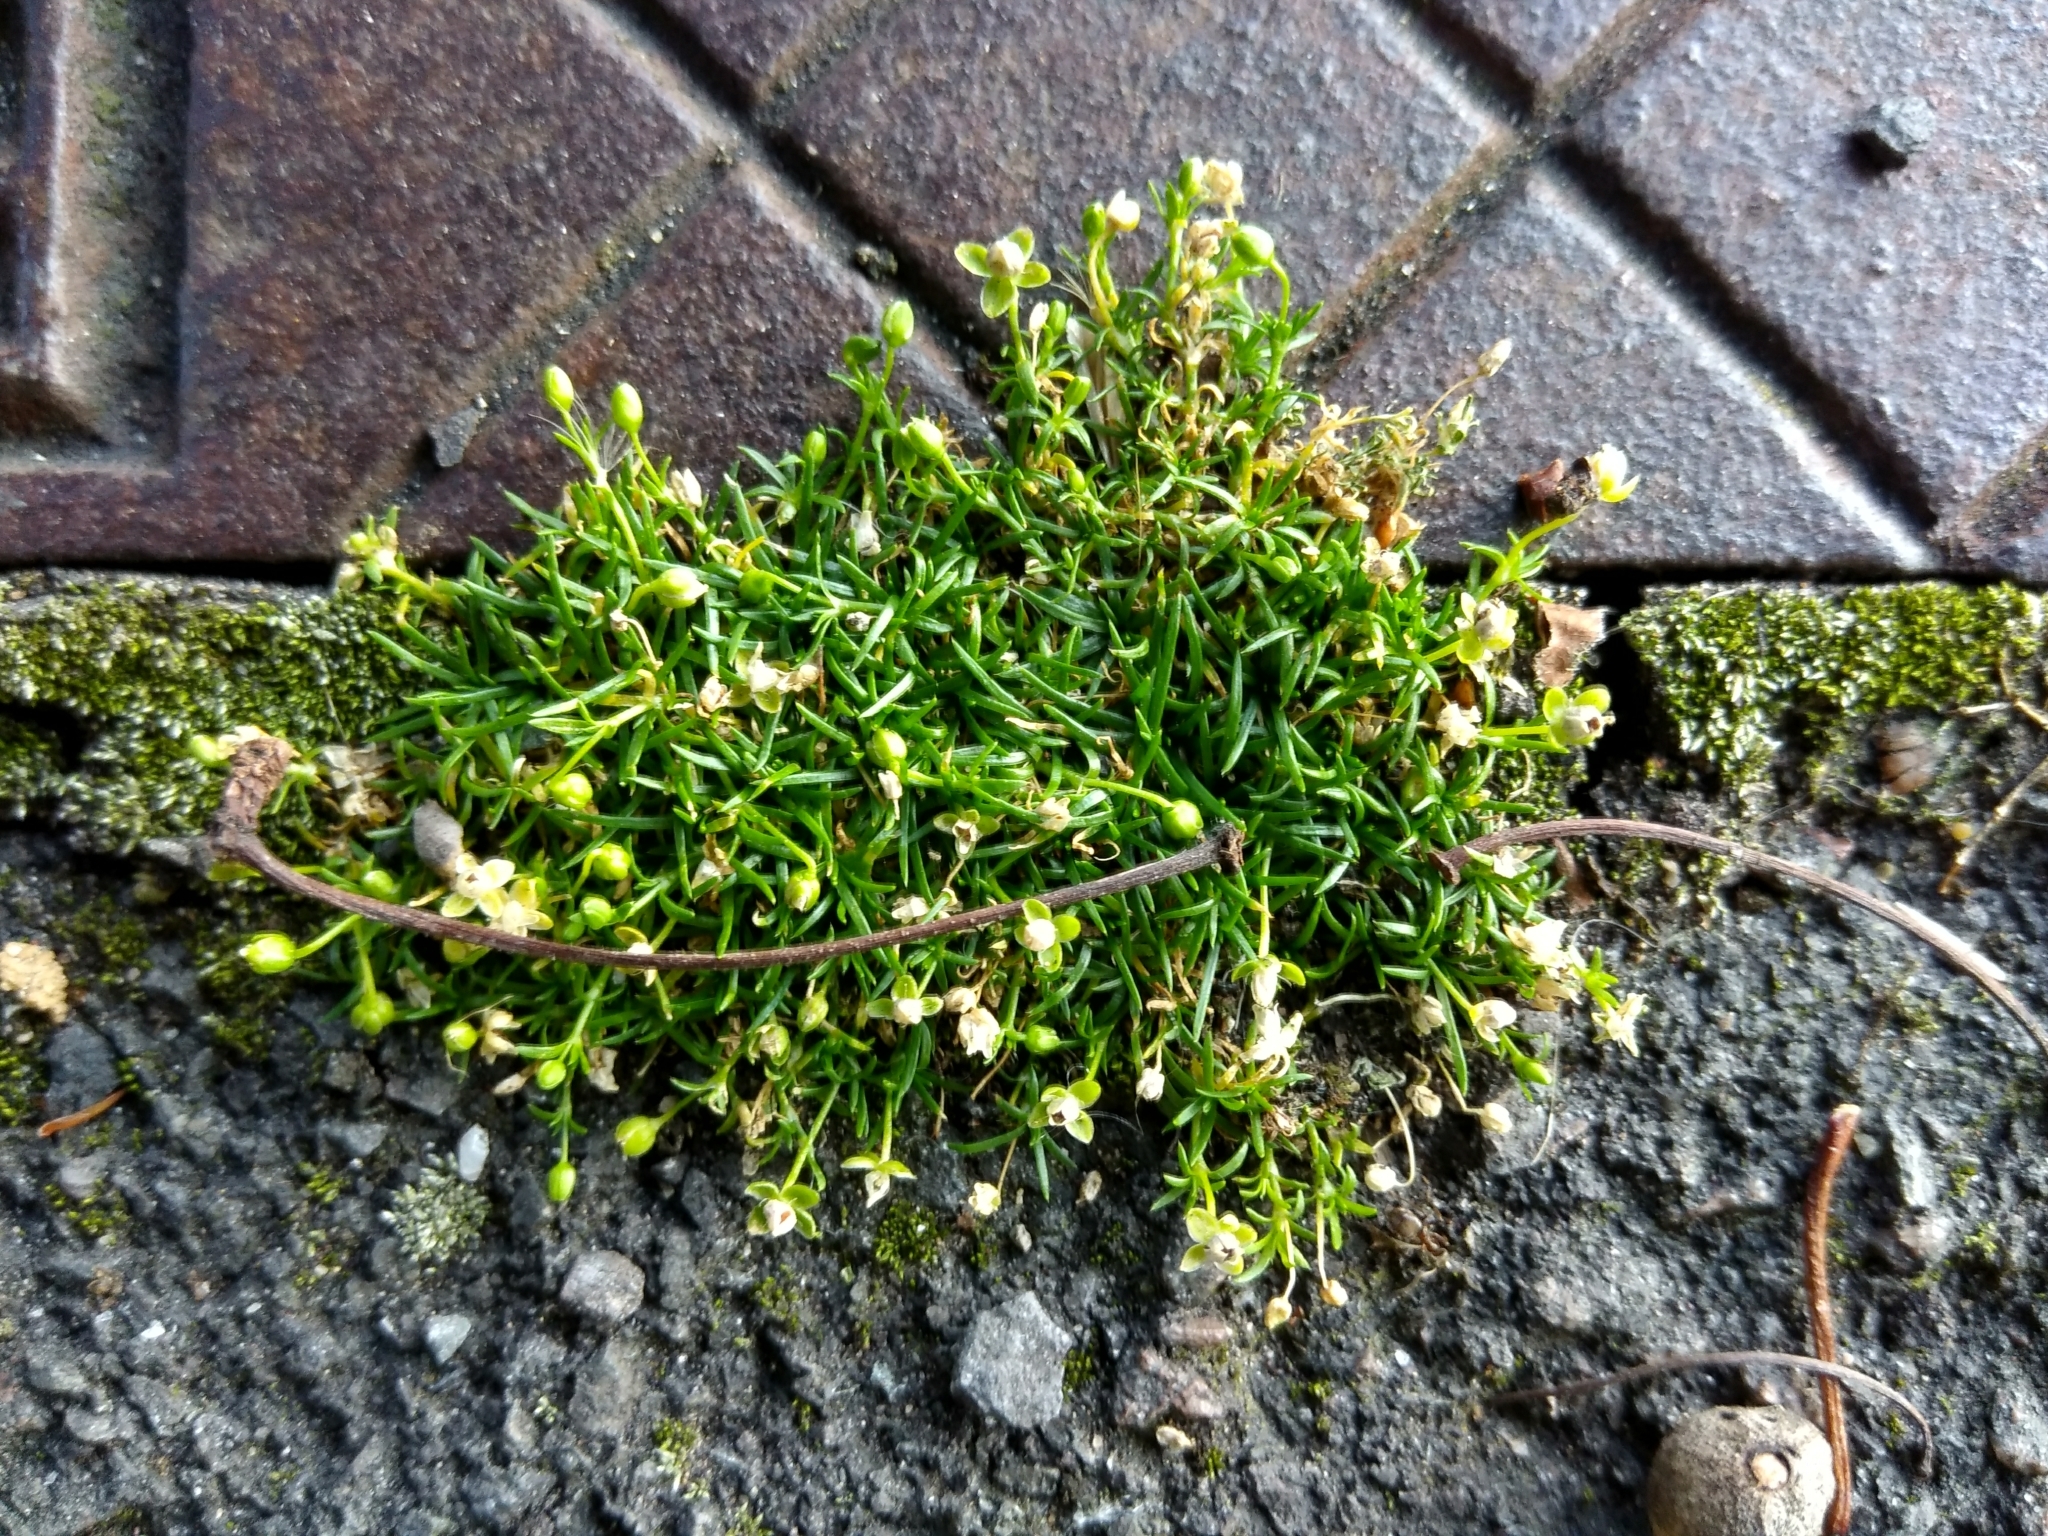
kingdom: Plantae
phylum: Tracheophyta
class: Magnoliopsida
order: Caryophyllales
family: Caryophyllaceae
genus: Sagina
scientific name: Sagina procumbens
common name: Procumbent pearlwort
